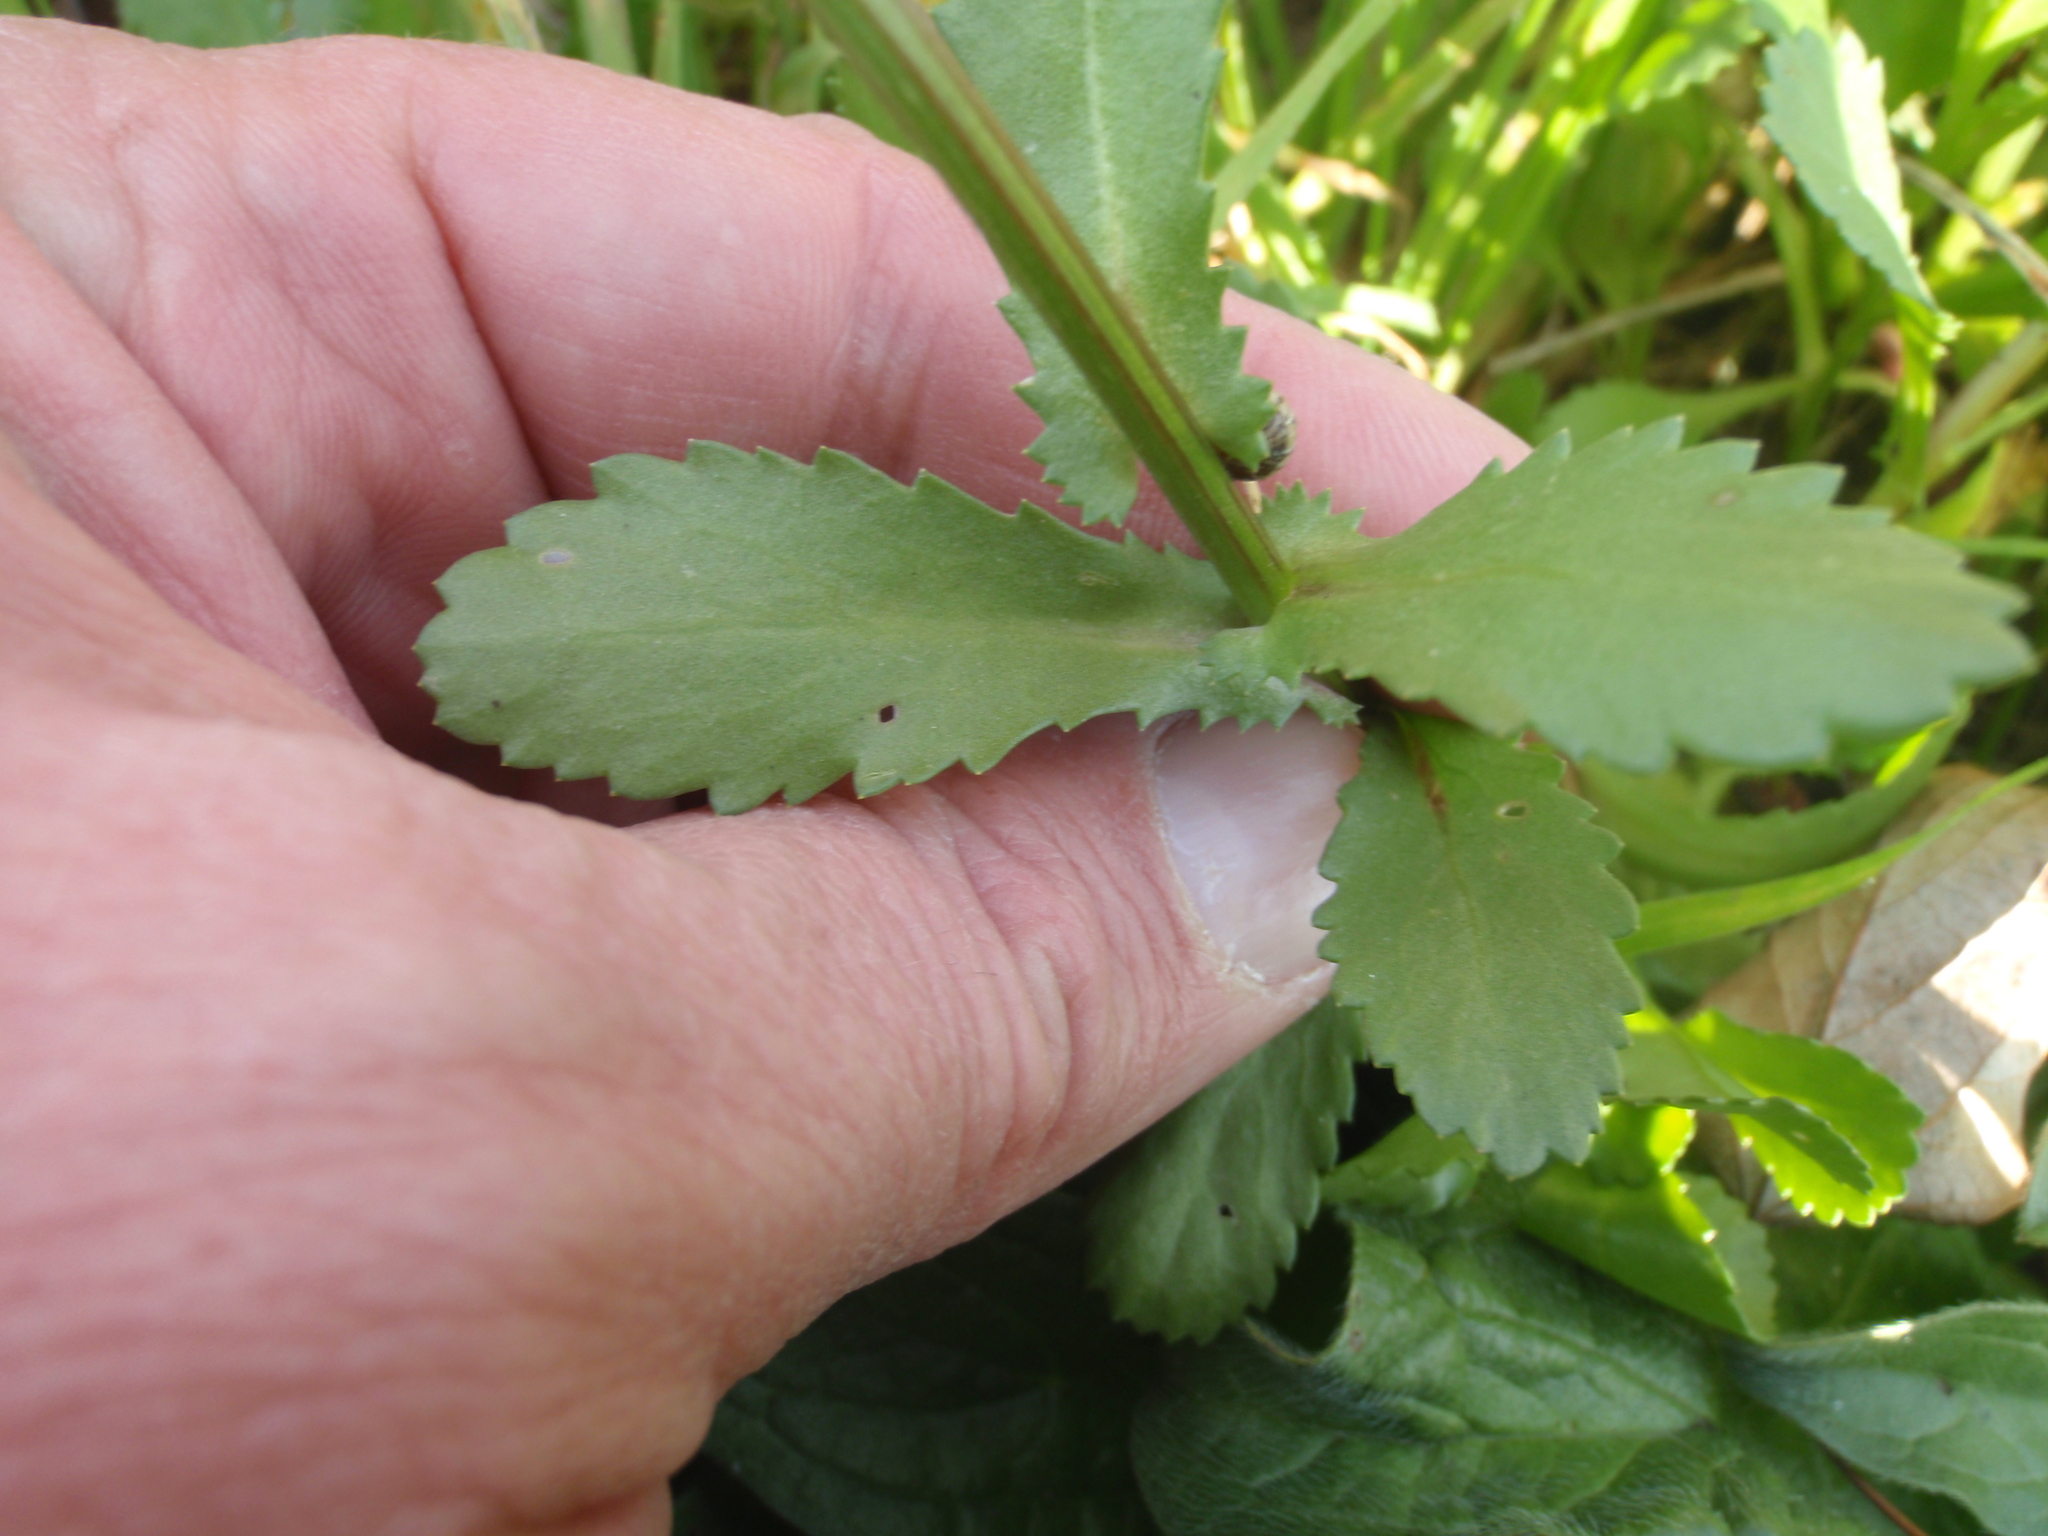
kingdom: Plantae
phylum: Tracheophyta
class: Magnoliopsida
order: Asterales
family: Asteraceae
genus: Coleostephus
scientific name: Coleostephus myconis
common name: Mediterranean marigold
